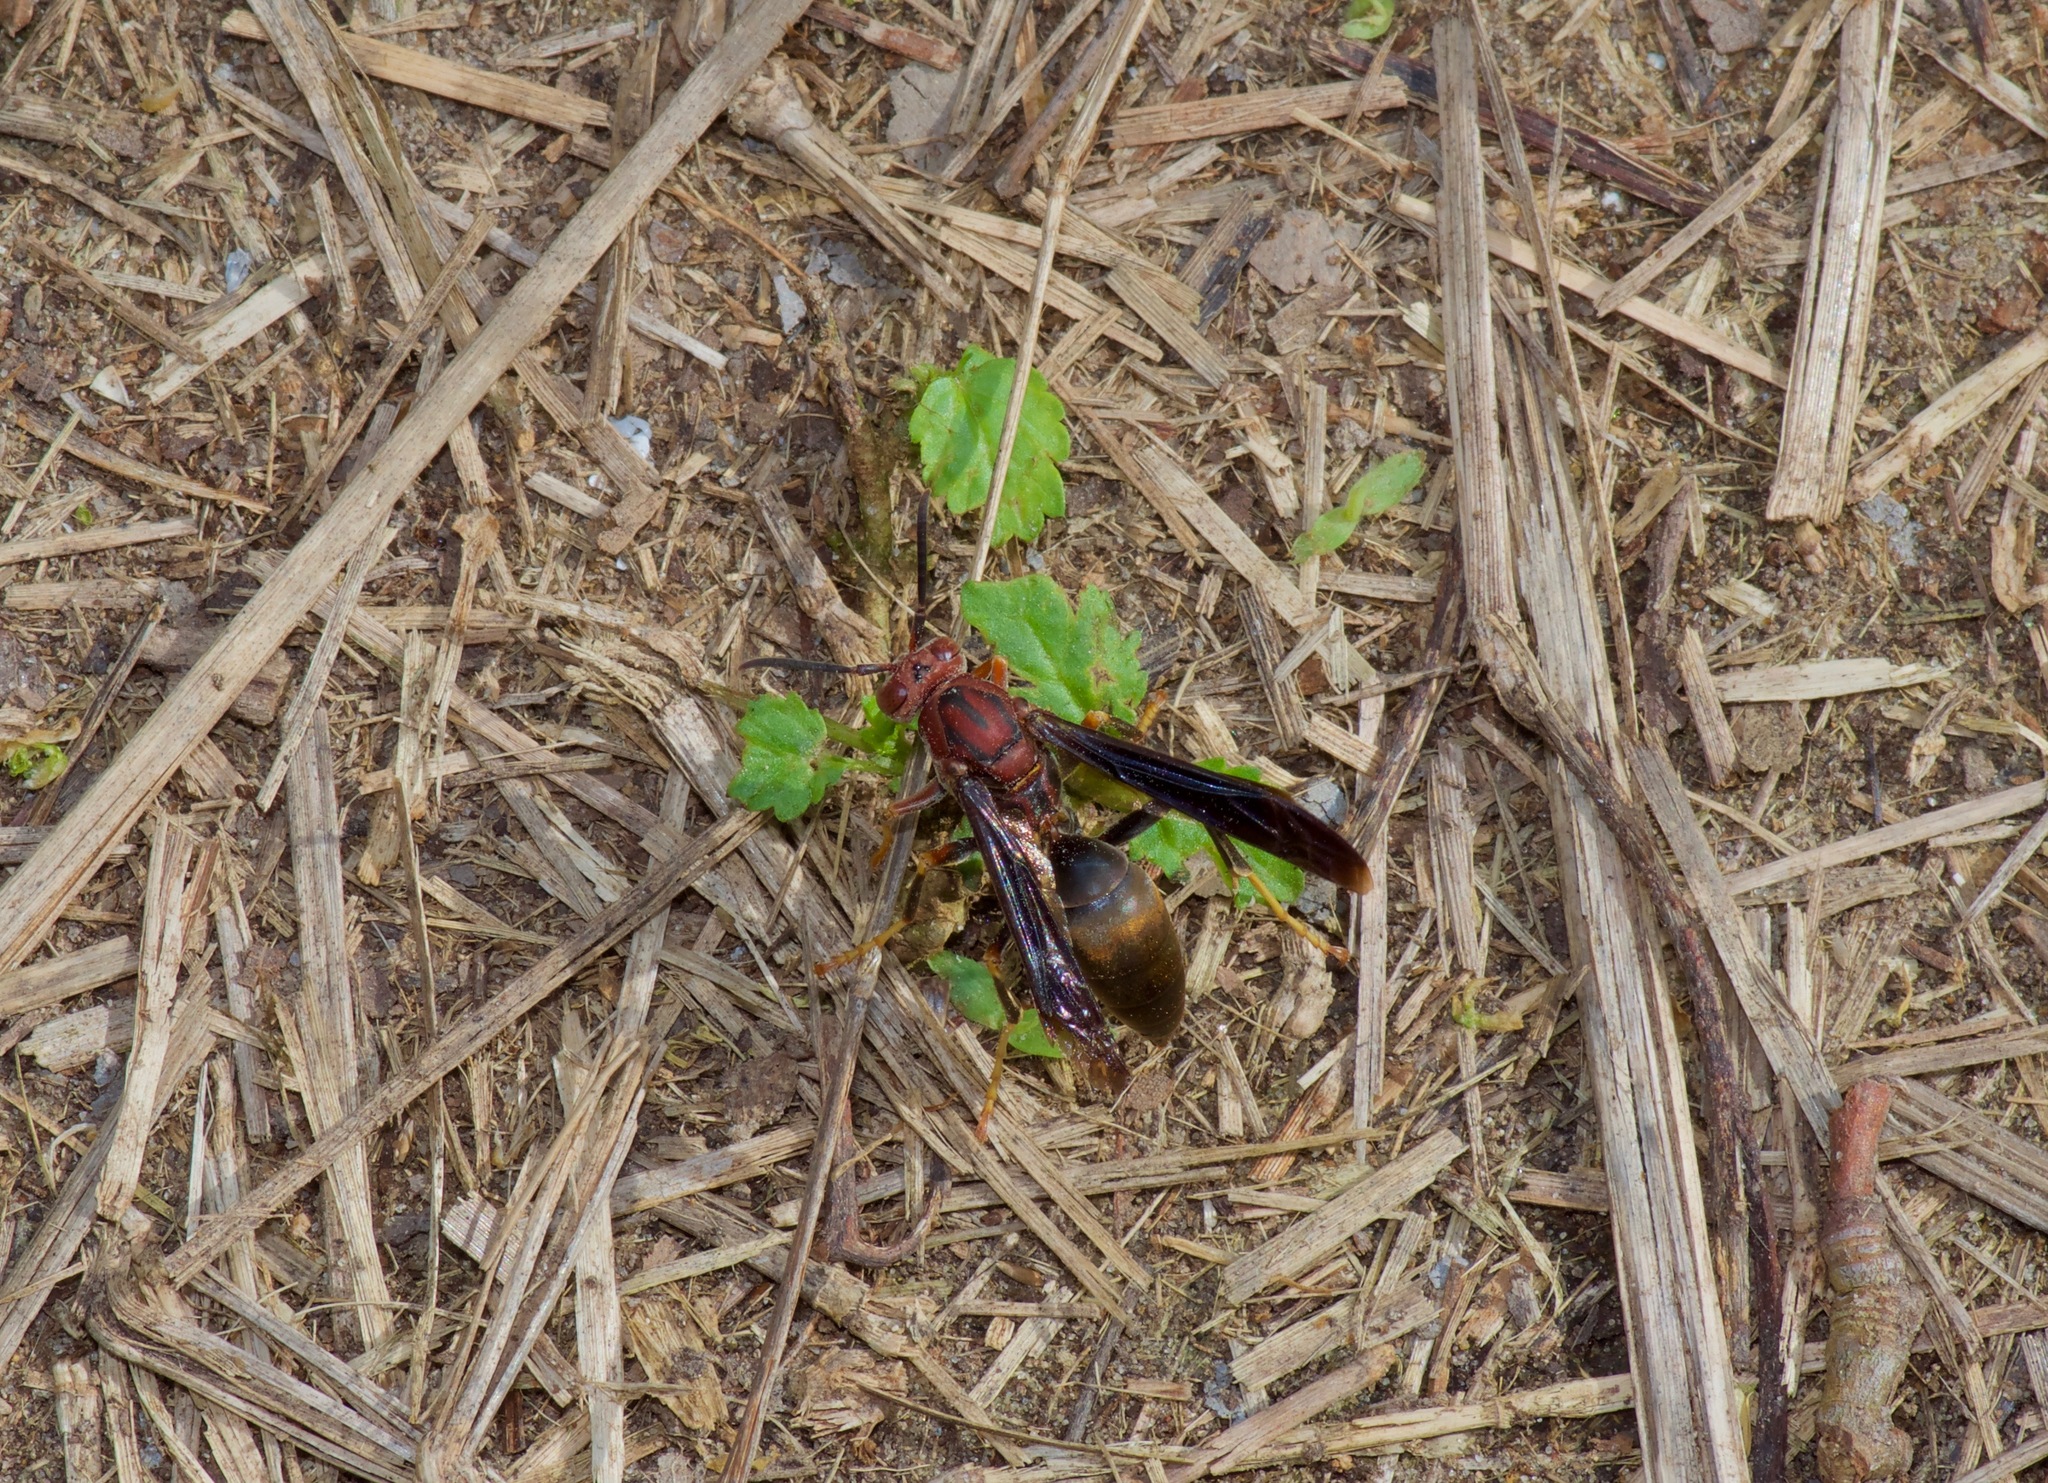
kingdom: Animalia
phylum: Arthropoda
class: Insecta
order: Hymenoptera
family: Eumenidae
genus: Polistes
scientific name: Polistes metricus
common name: Metric paper wasp
